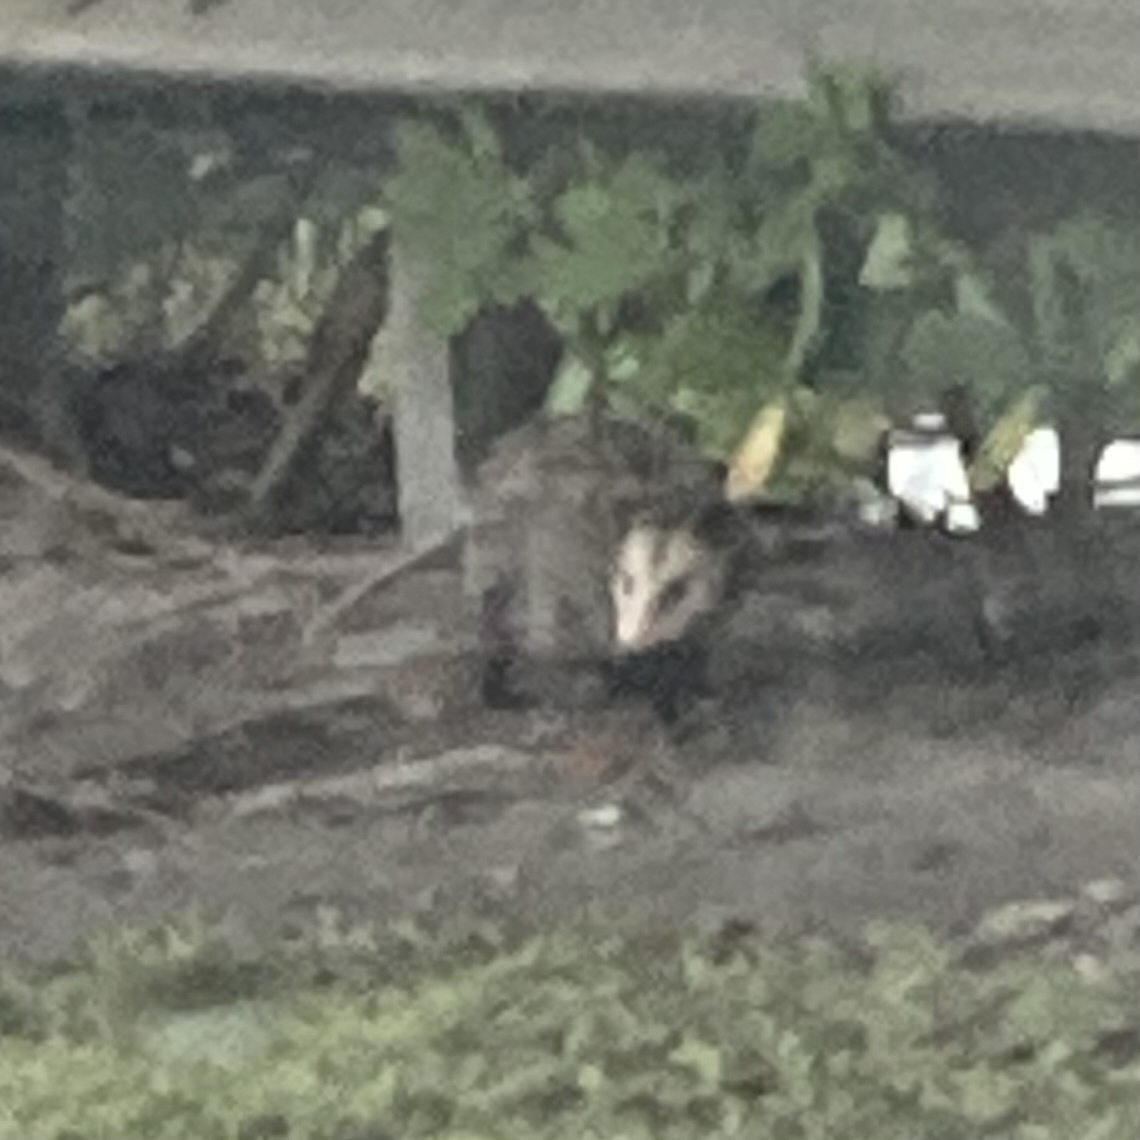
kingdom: Animalia
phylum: Chordata
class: Mammalia
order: Didelphimorphia
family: Didelphidae
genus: Didelphis
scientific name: Didelphis virginiana
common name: Virginia opossum
